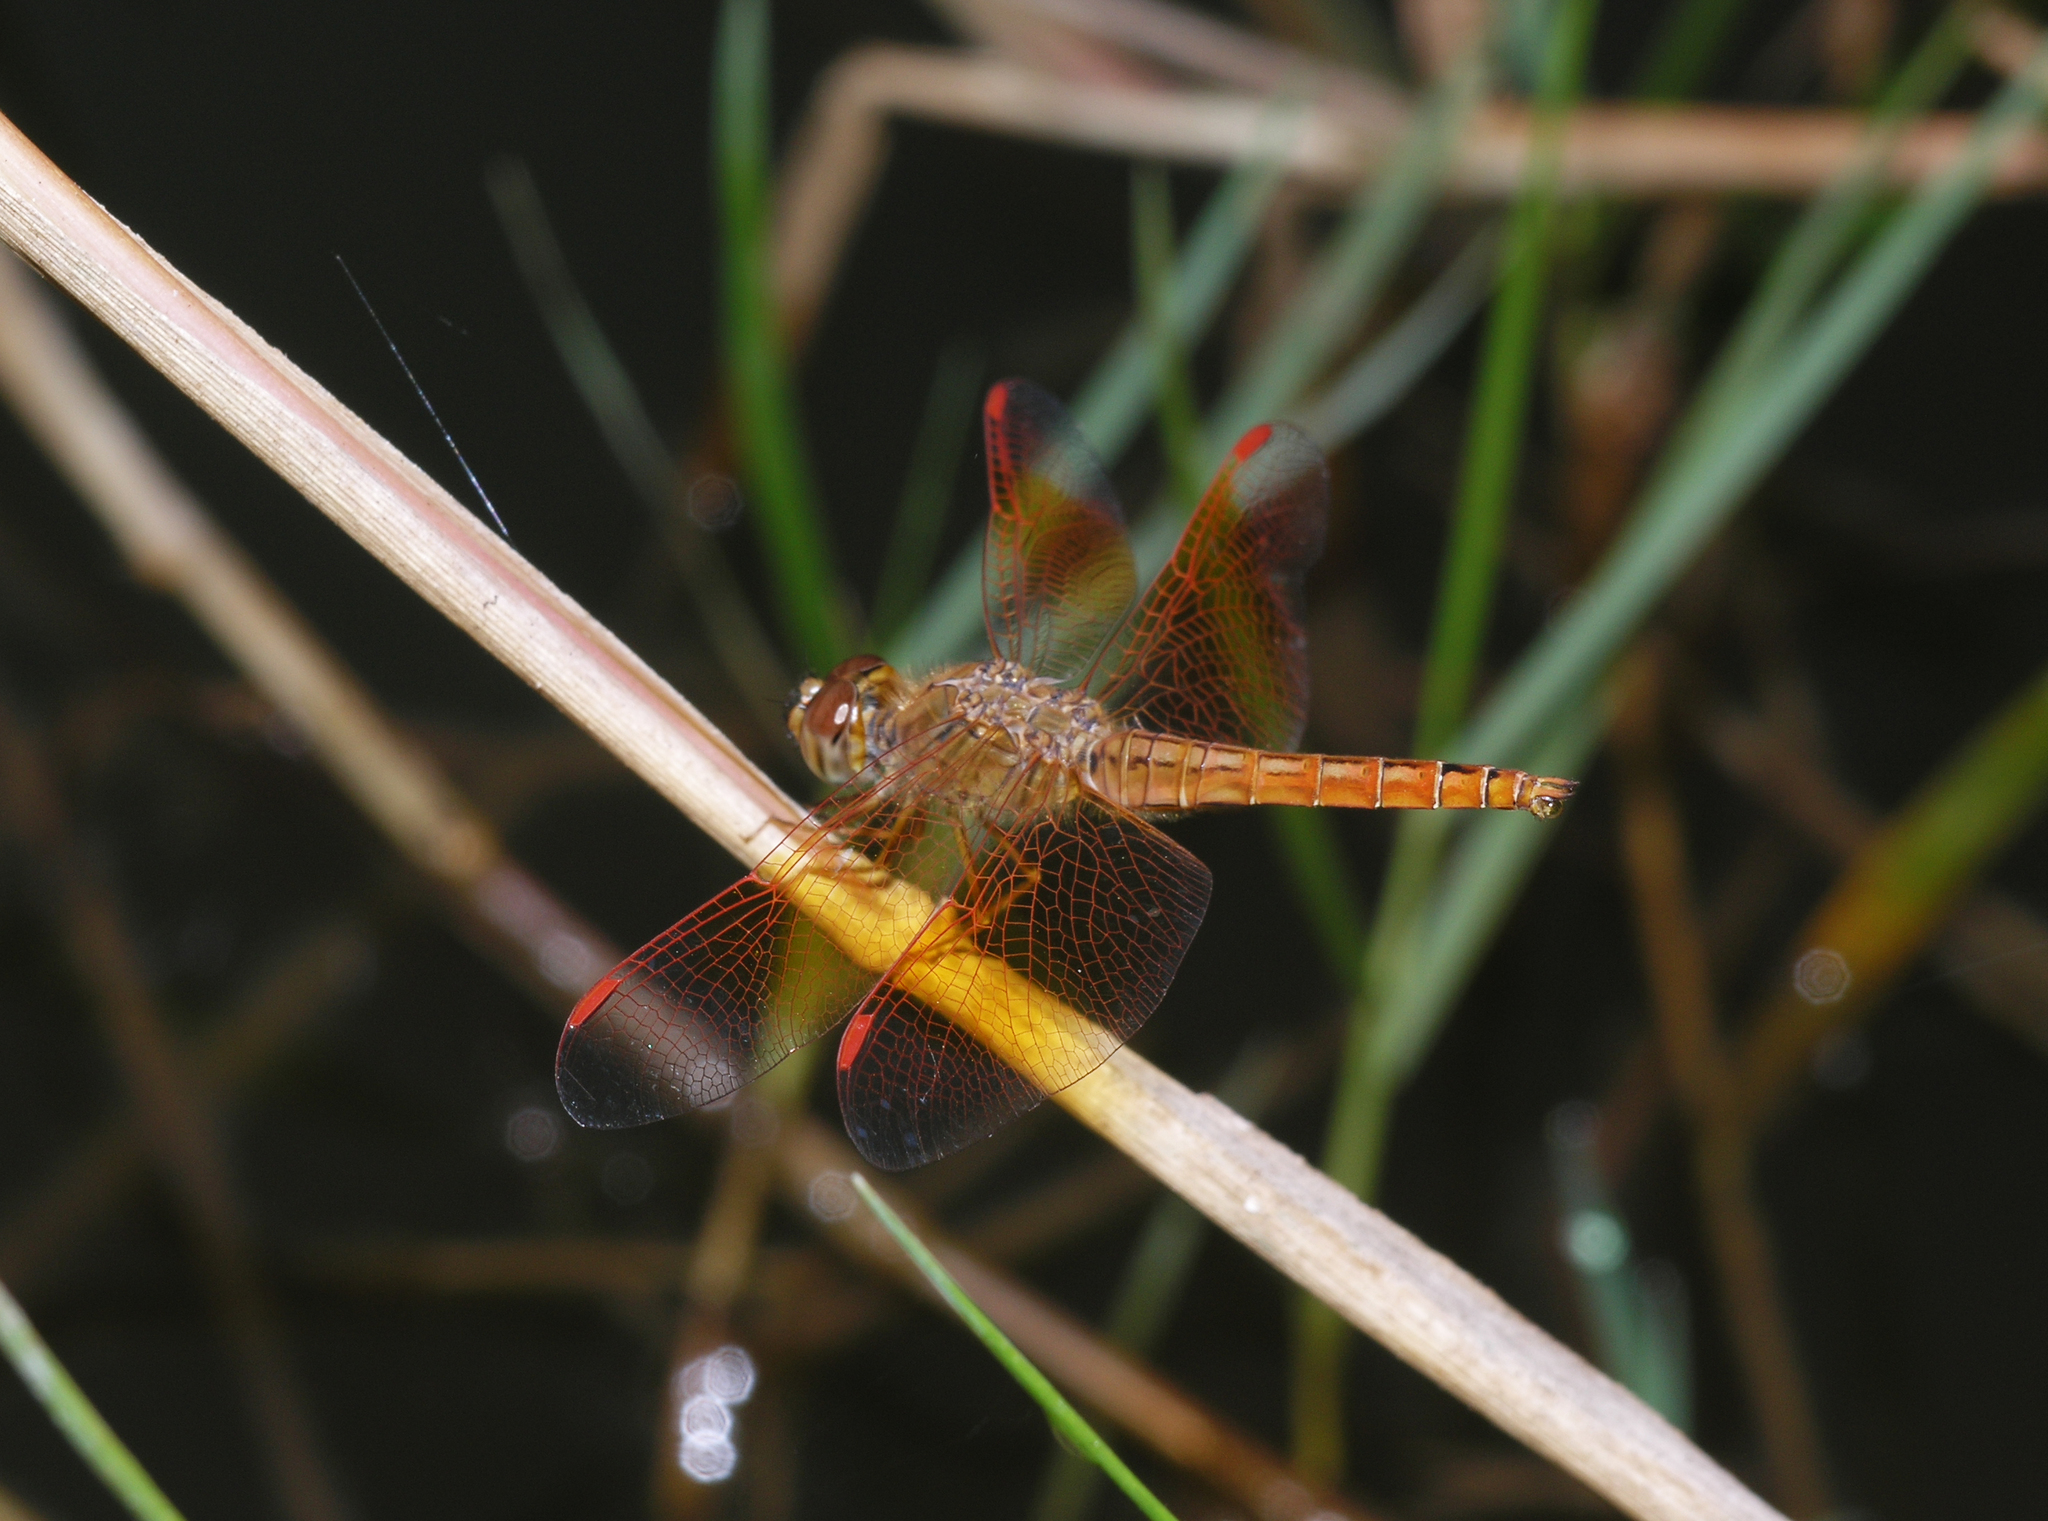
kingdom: Animalia
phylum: Arthropoda
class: Insecta
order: Odonata
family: Libellulidae
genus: Brachythemis
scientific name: Brachythemis contaminata
